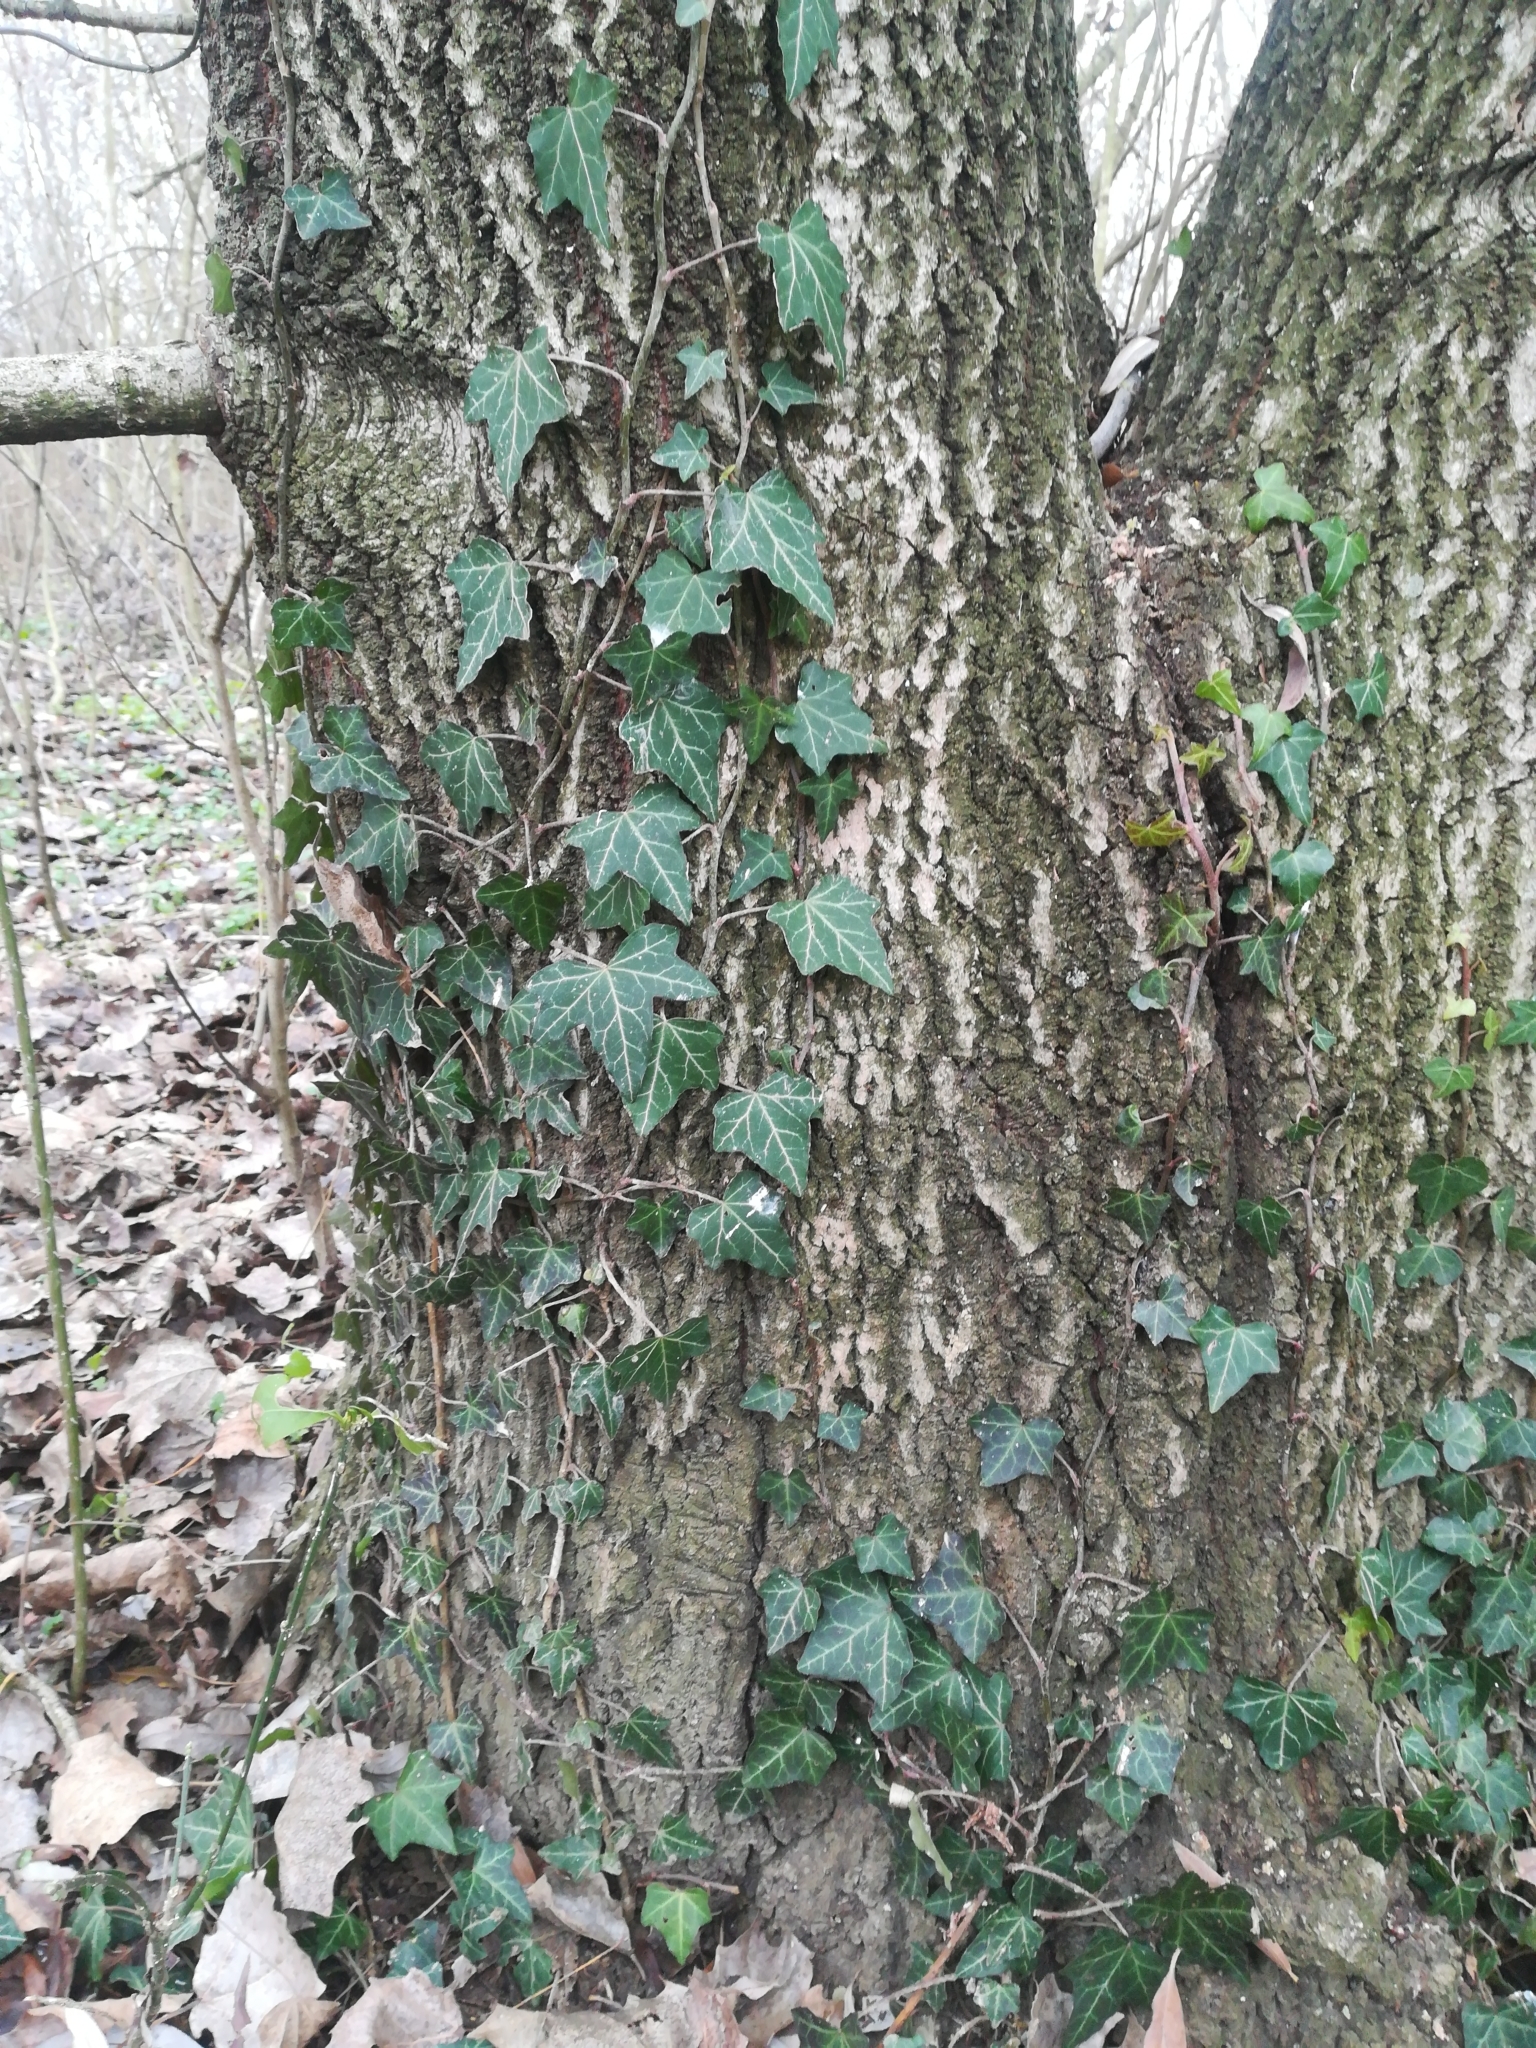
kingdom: Plantae
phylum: Tracheophyta
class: Magnoliopsida
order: Apiales
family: Araliaceae
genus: Hedera
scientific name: Hedera helix
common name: Ivy
